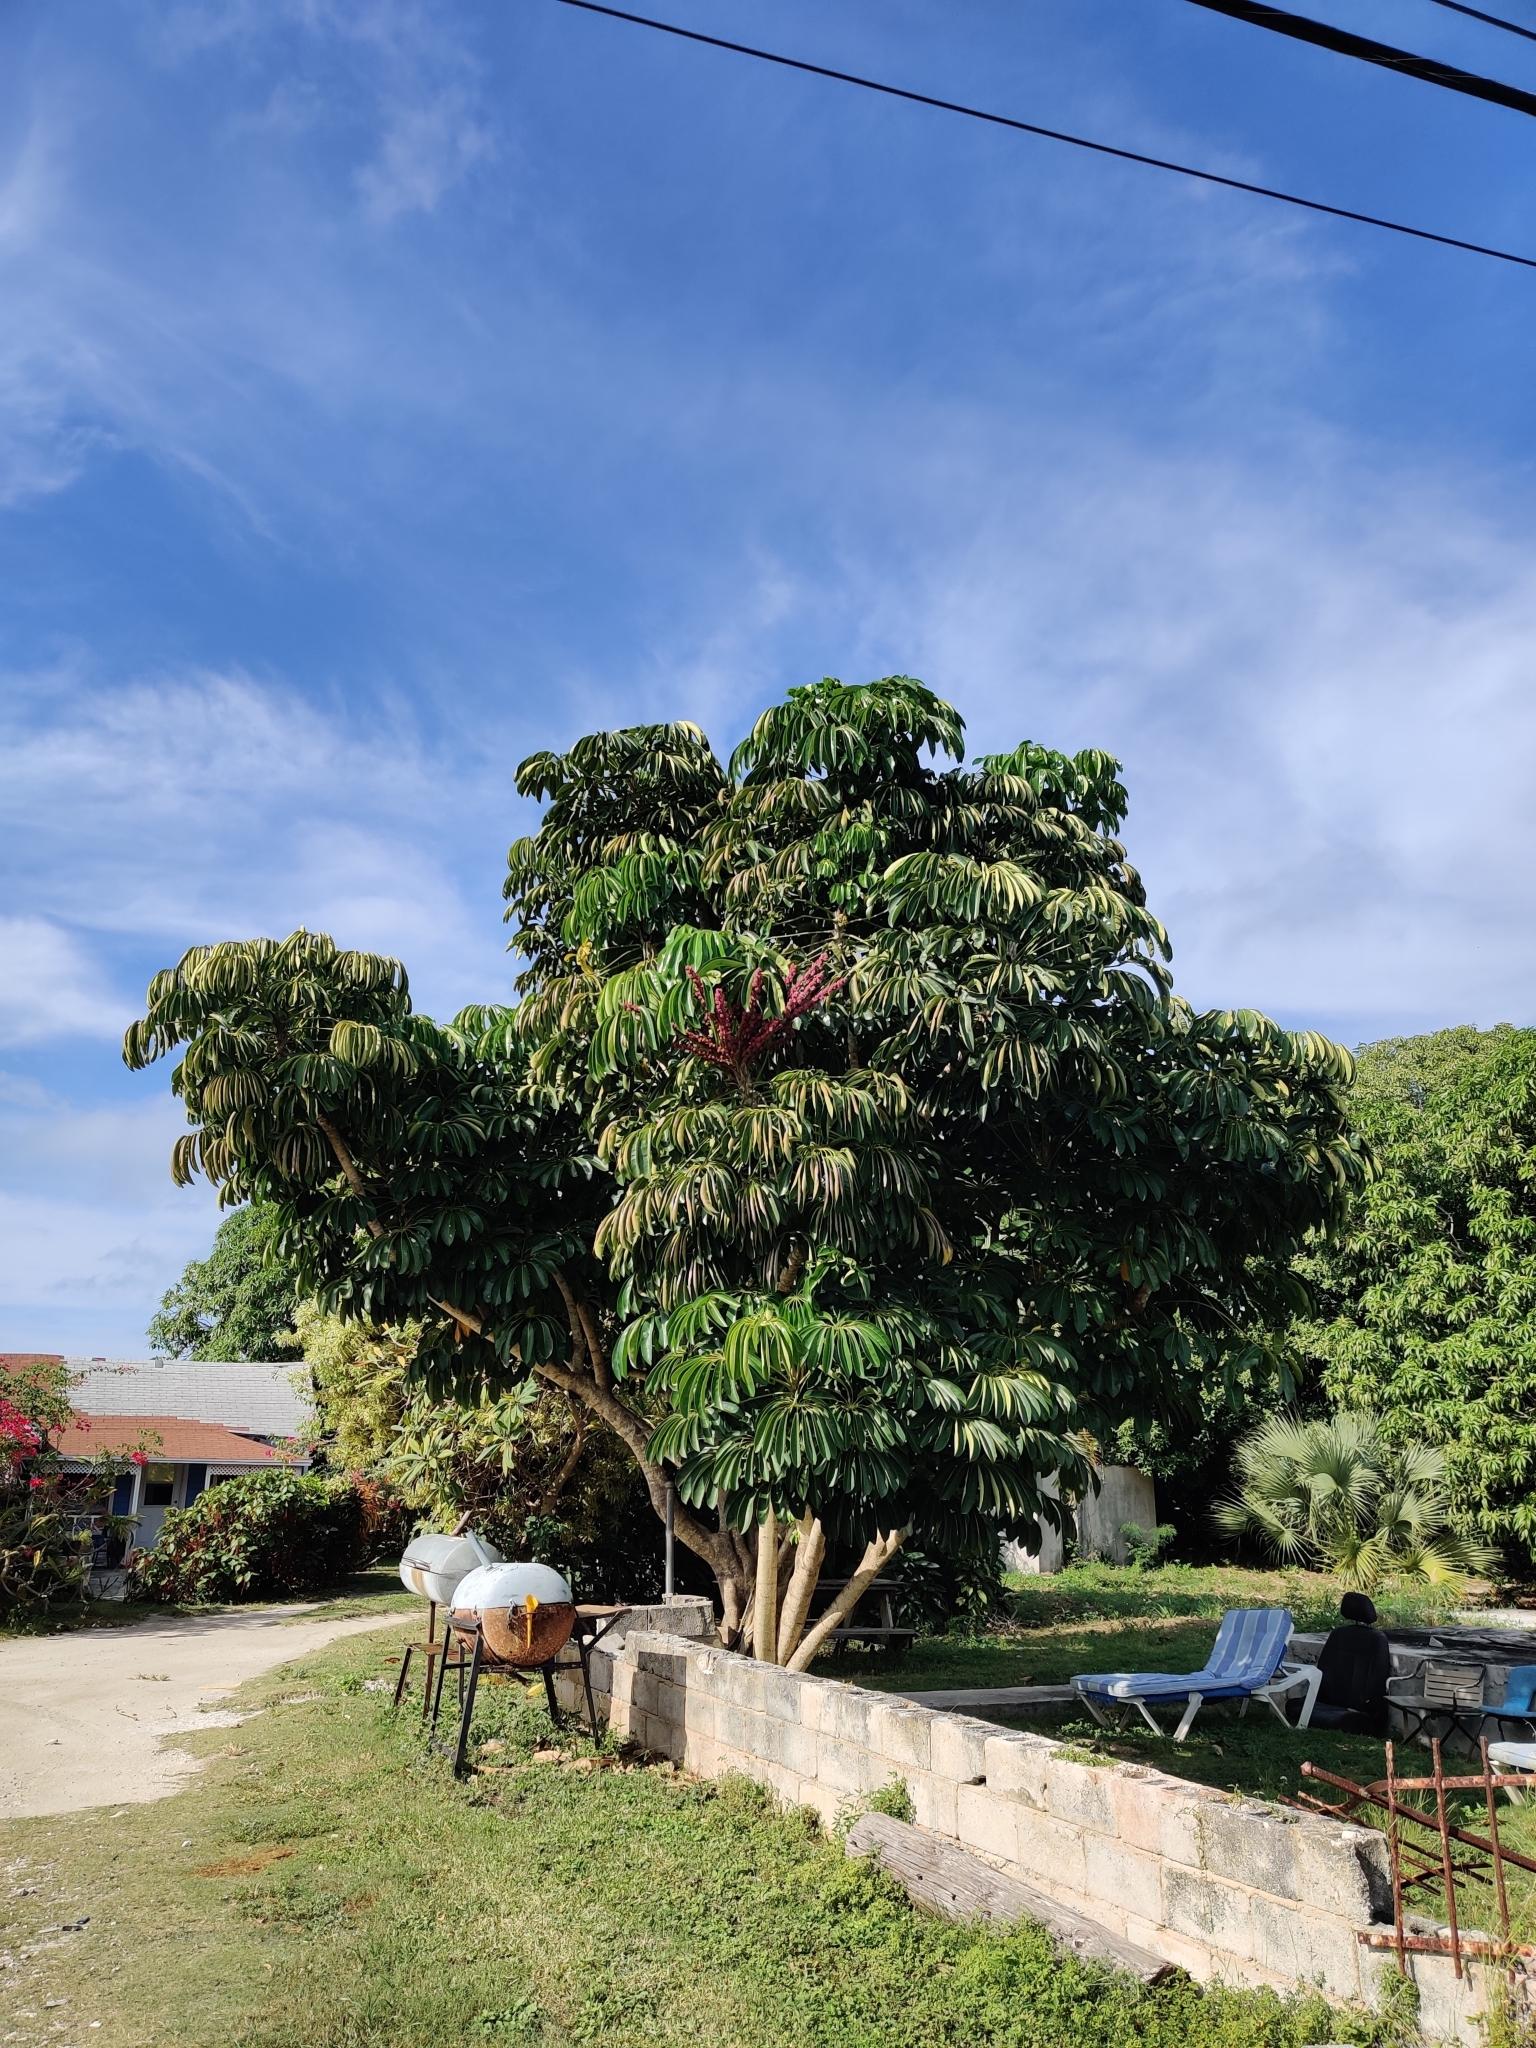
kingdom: Plantae
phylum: Tracheophyta
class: Magnoliopsida
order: Apiales
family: Araliaceae
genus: Heptapleurum
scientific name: Heptapleurum actinophyllum
